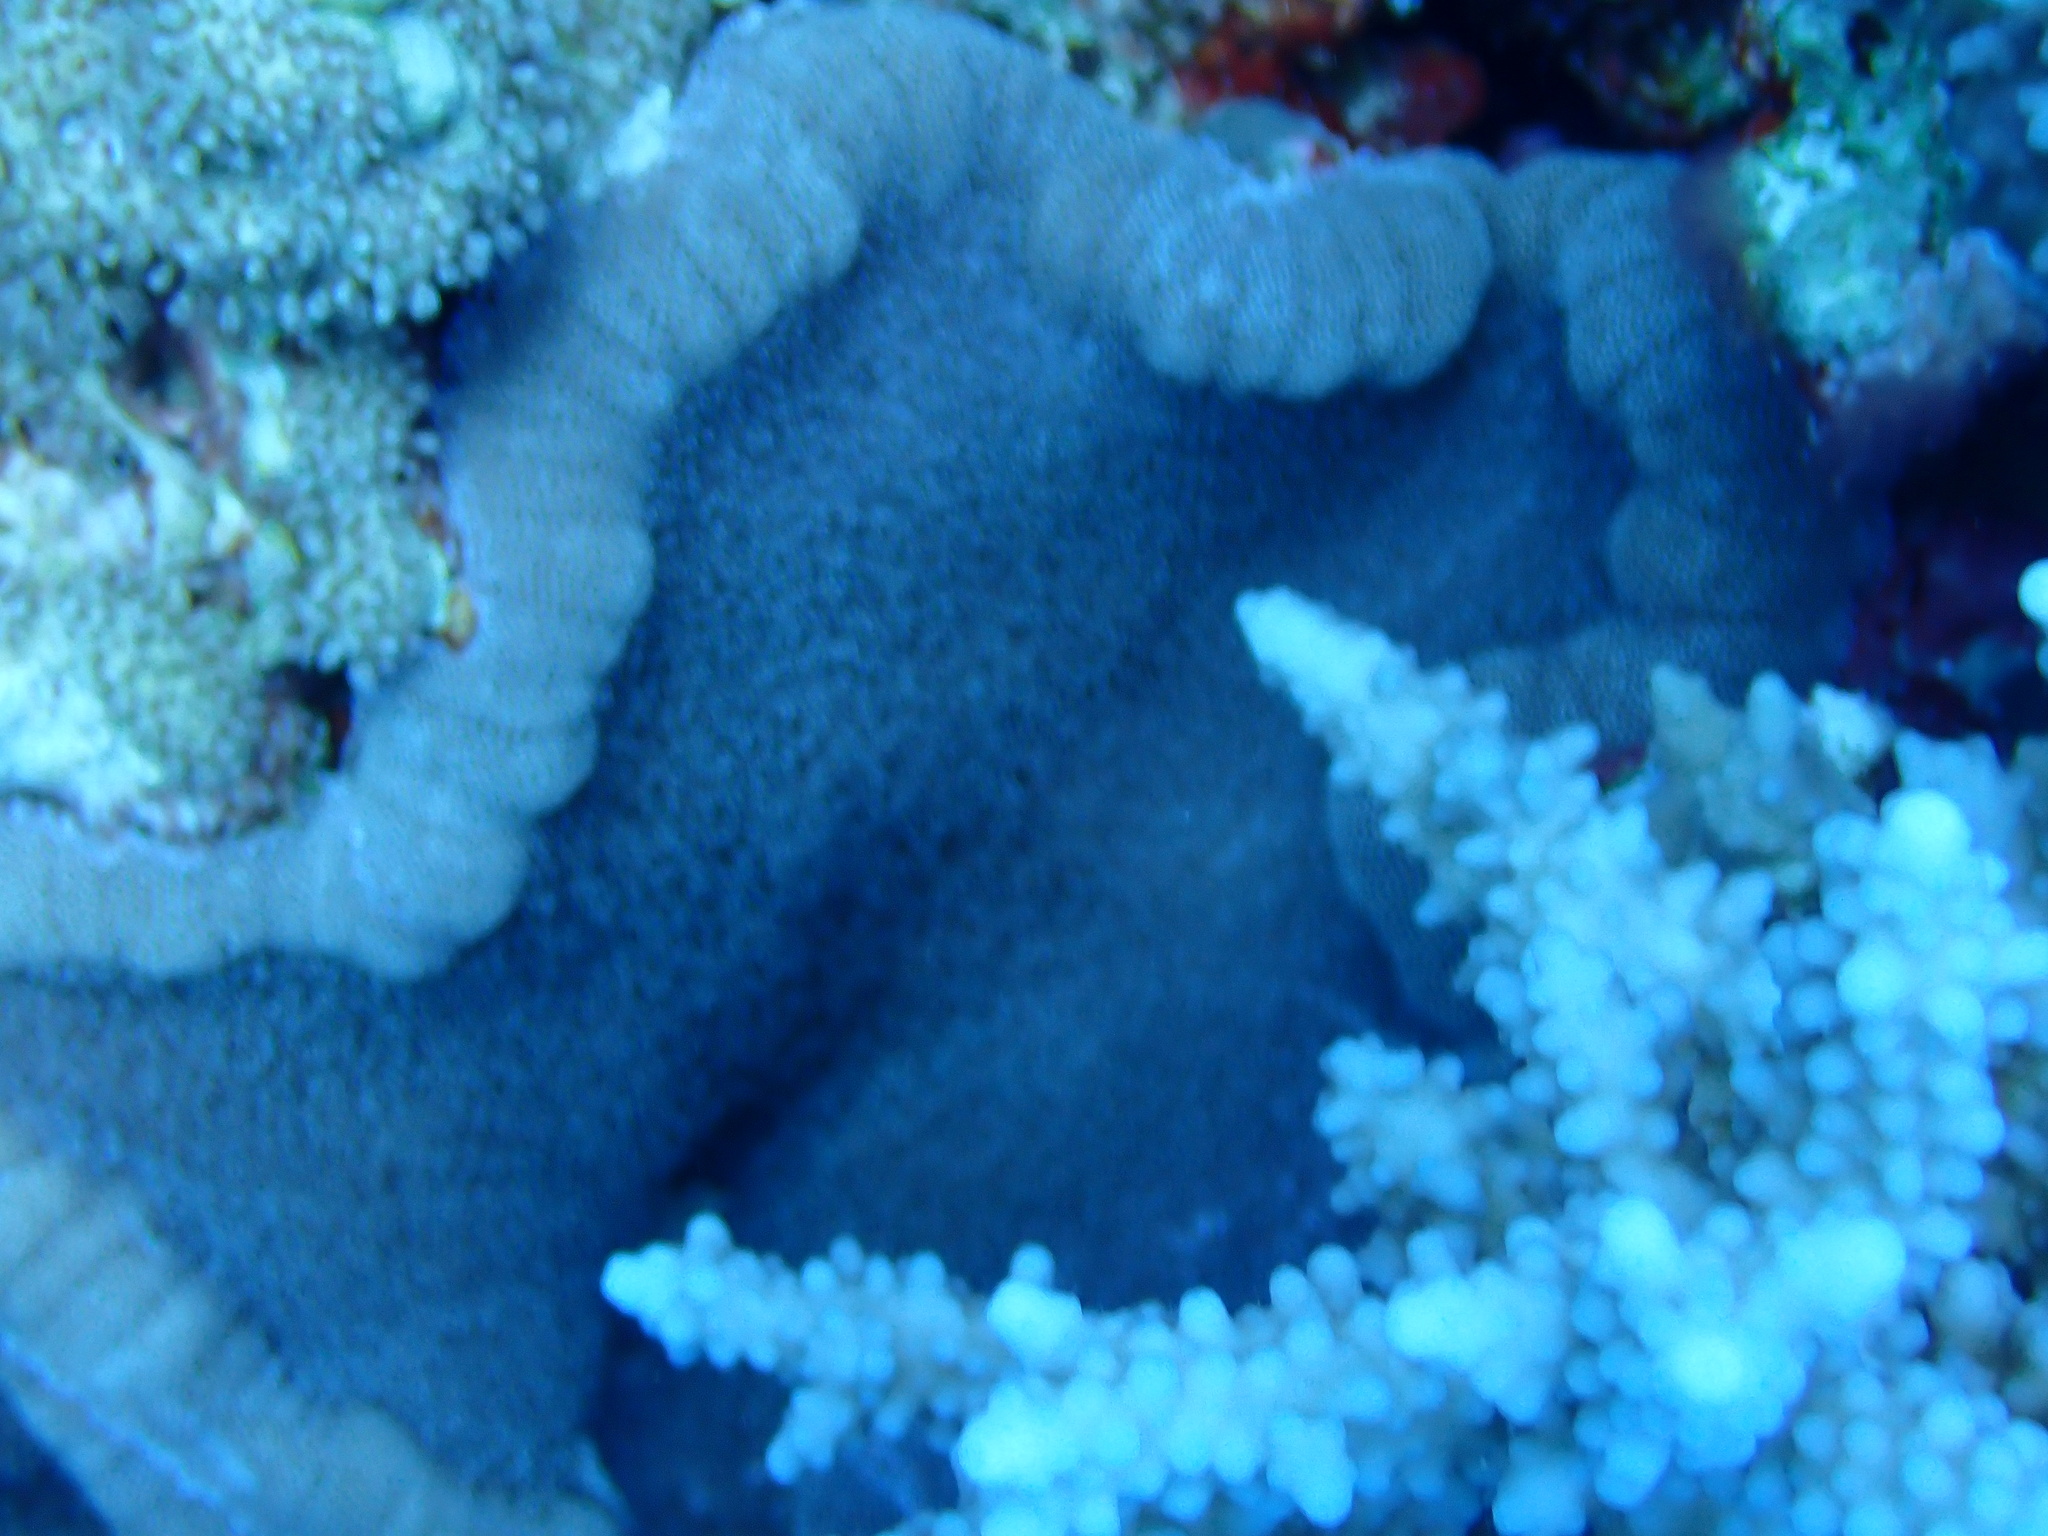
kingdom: Animalia
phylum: Cnidaria
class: Anthozoa
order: Actiniaria
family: Thalassianthidae
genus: Cryptodendrum
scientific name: Cryptodendrum adhaesivum
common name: Adhesive sea anemone
